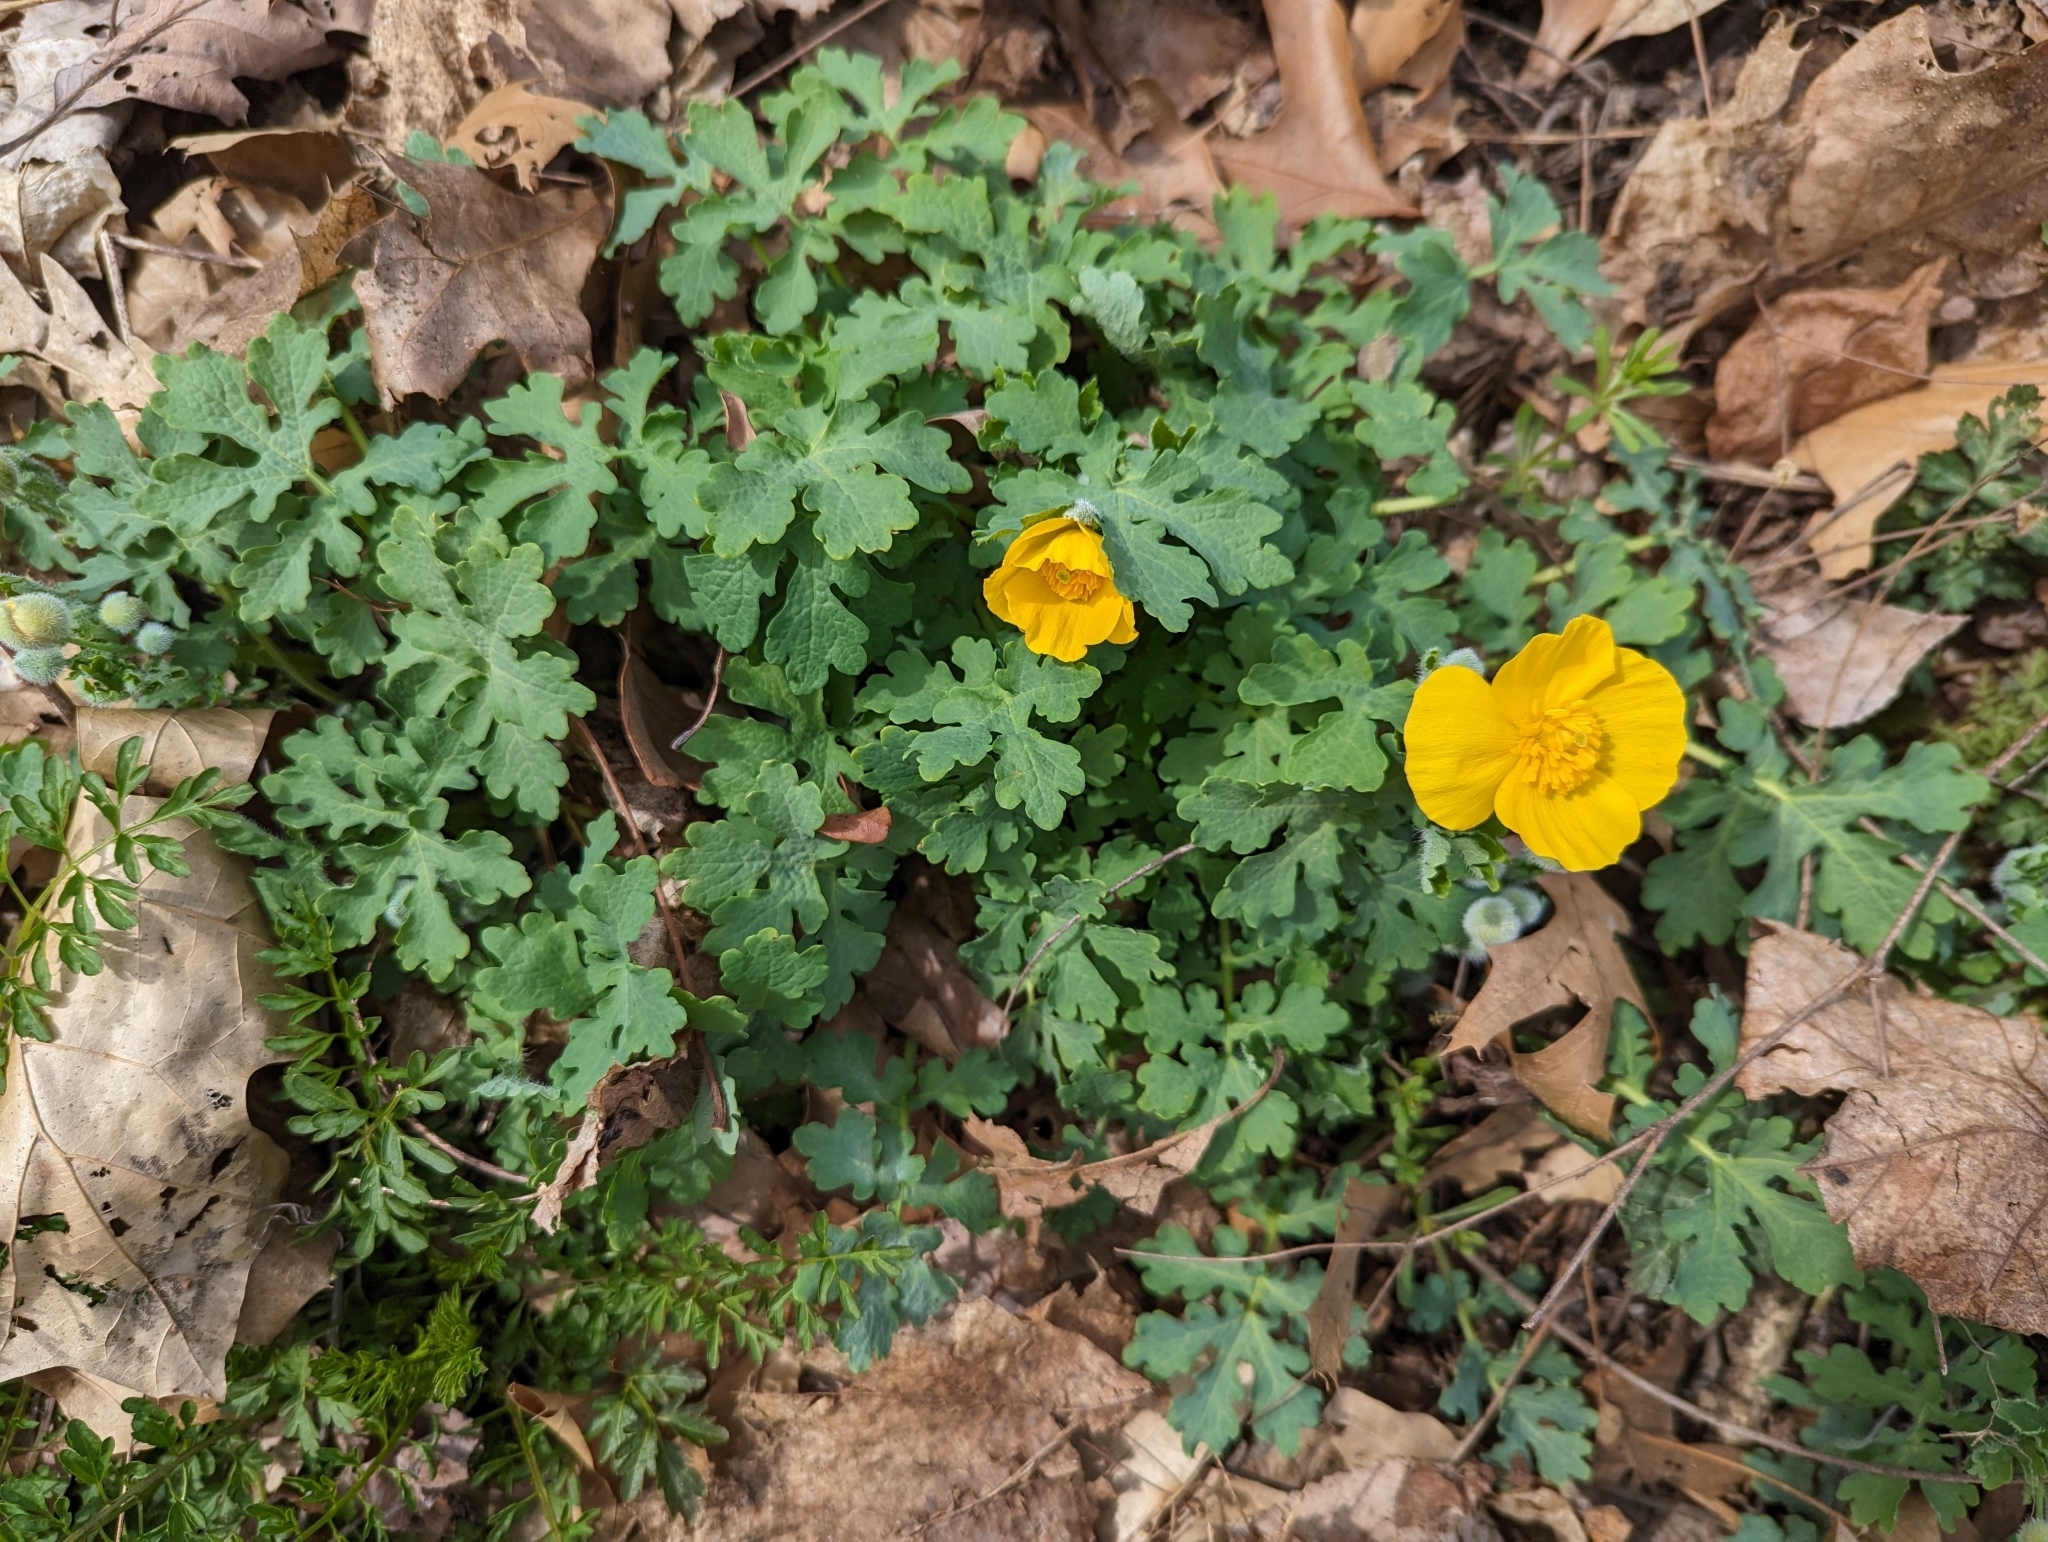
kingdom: Plantae
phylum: Tracheophyta
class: Magnoliopsida
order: Ranunculales
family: Papaveraceae
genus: Stylophorum
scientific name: Stylophorum diphyllum
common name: Celandine poppy
